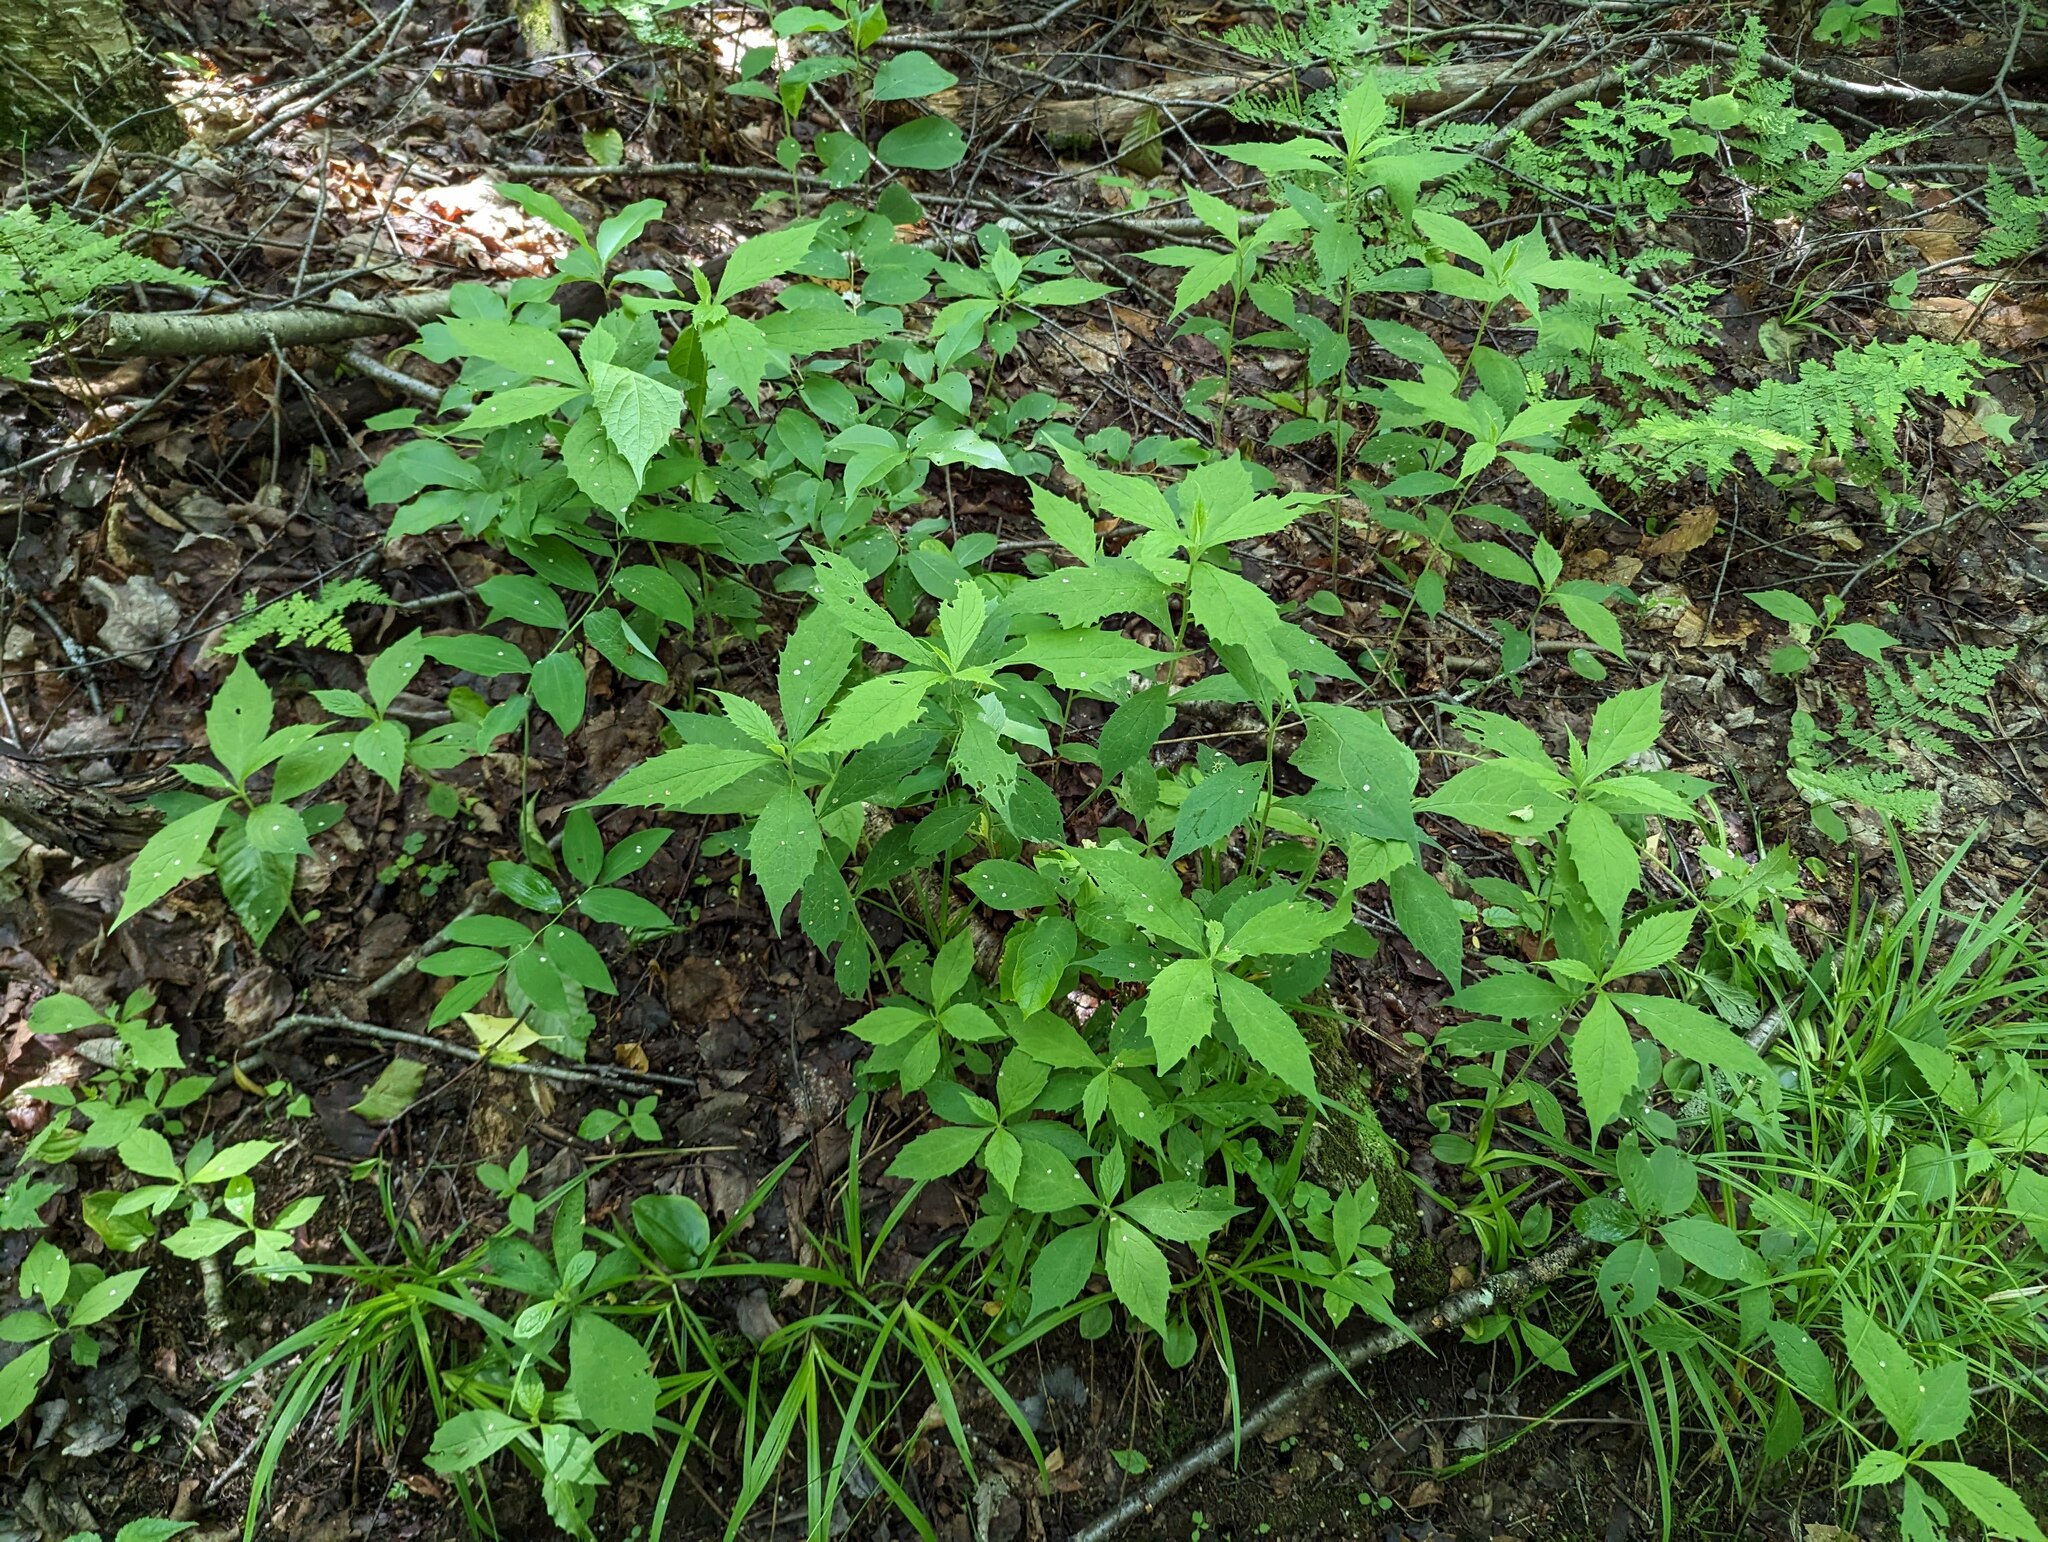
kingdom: Plantae
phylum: Tracheophyta
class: Magnoliopsida
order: Asterales
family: Asteraceae
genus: Oclemena
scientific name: Oclemena acuminata
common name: Mountain aster
